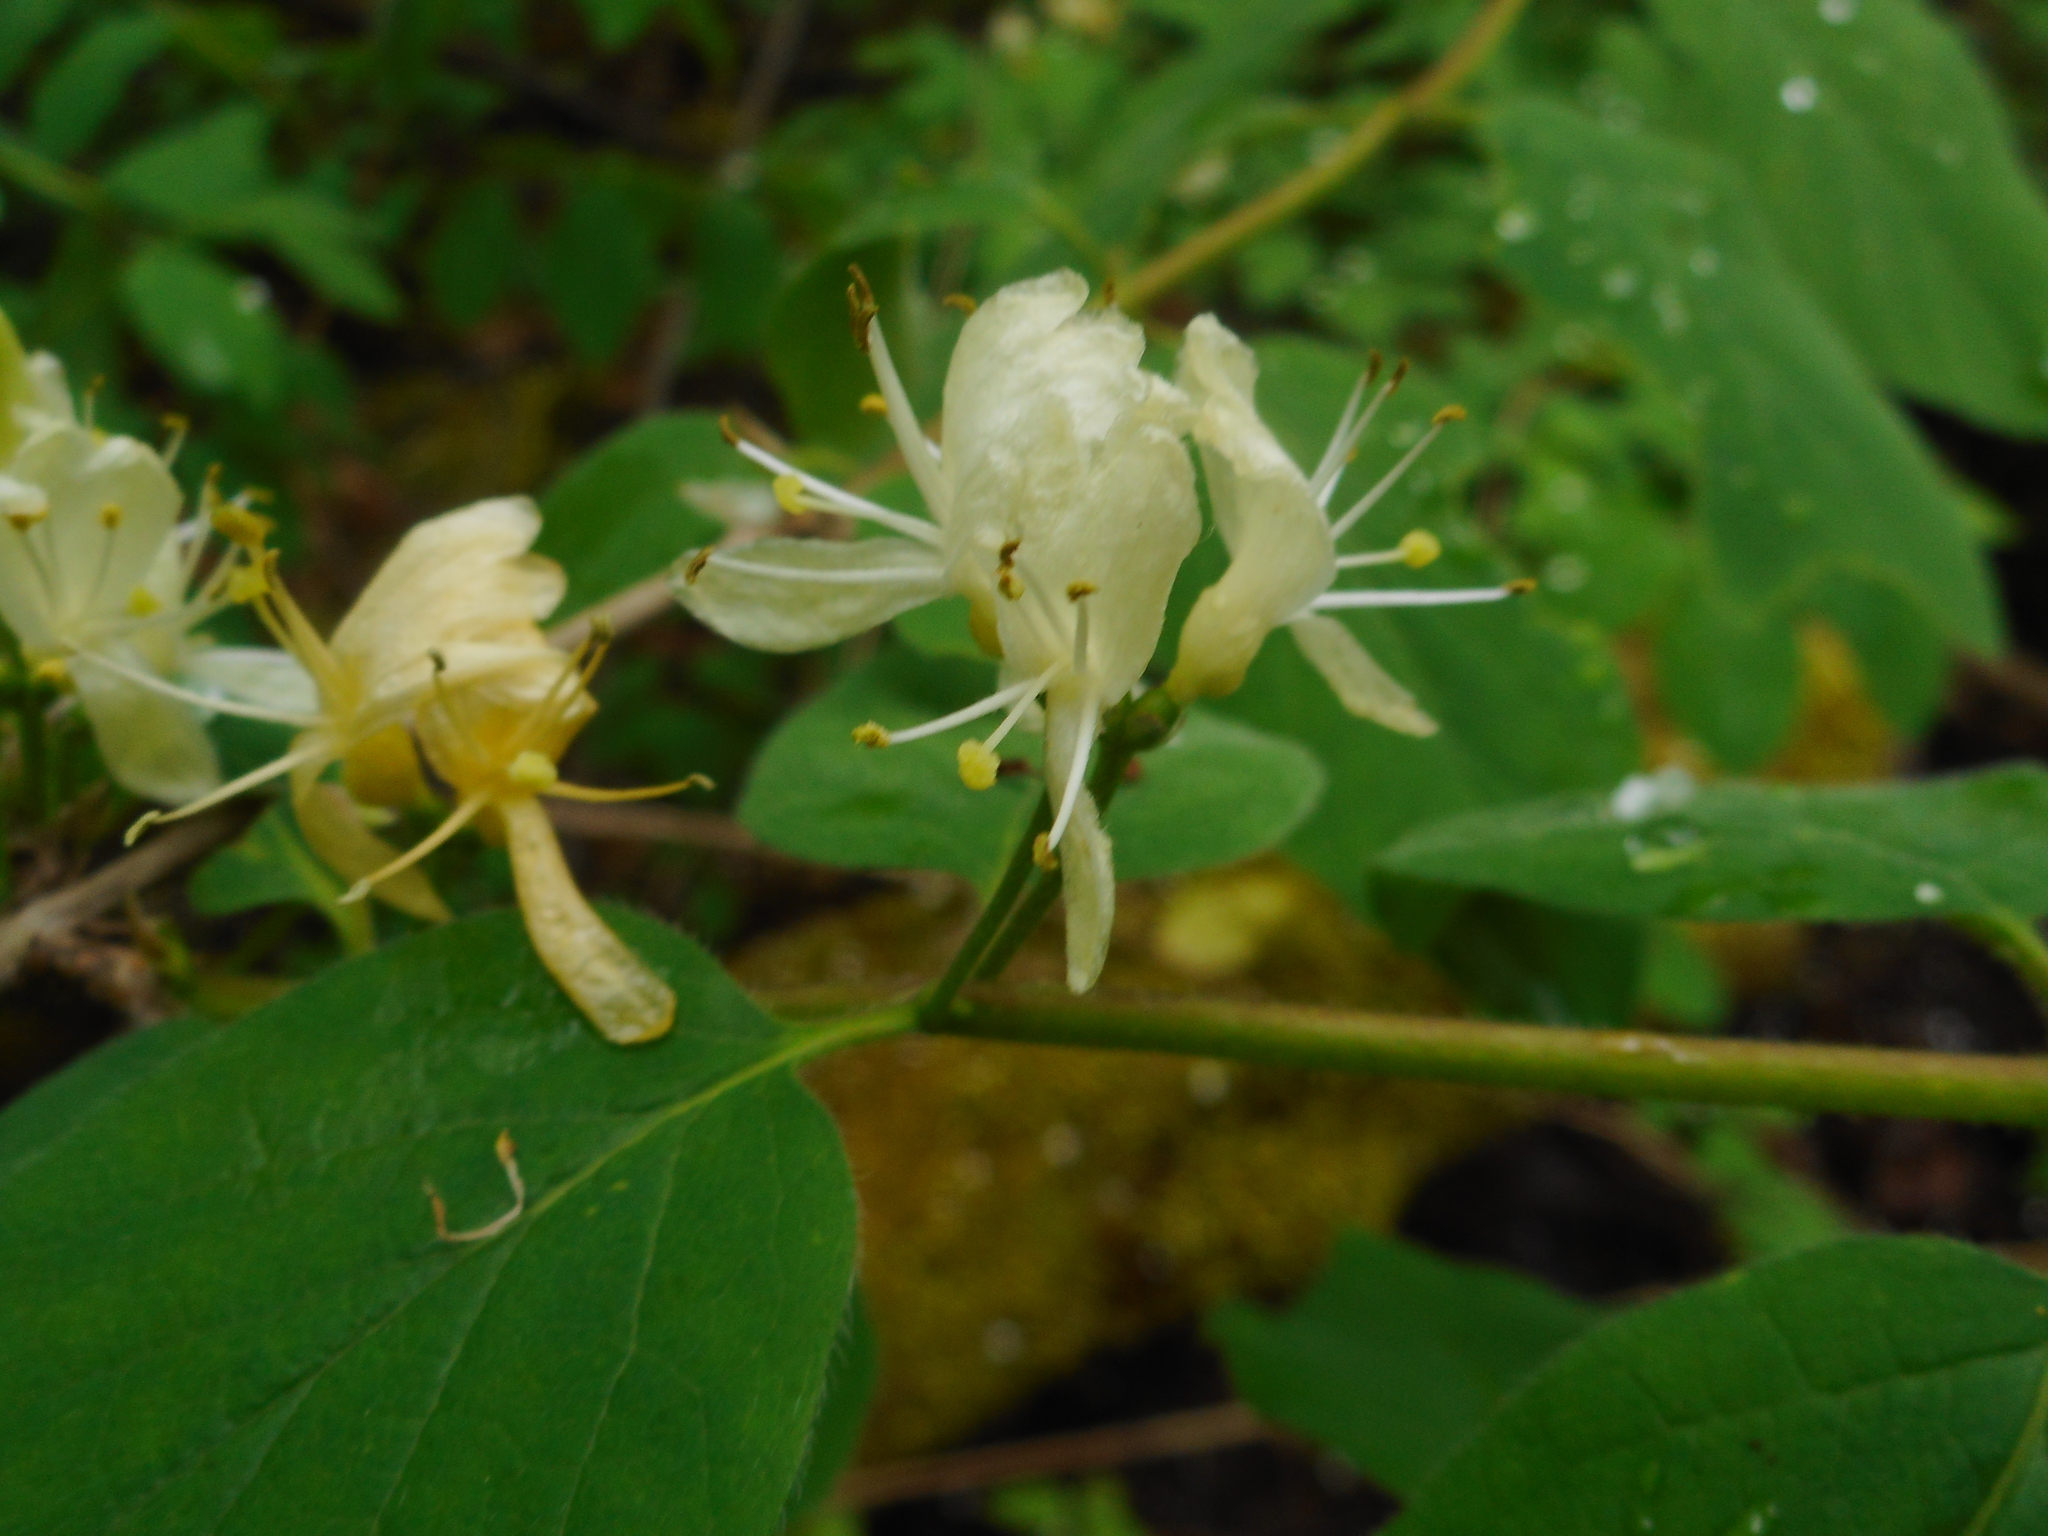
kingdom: Plantae
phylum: Tracheophyta
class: Magnoliopsida
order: Dipsacales
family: Caprifoliaceae
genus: Lonicera
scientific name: Lonicera xylosteum
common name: Fly honeysuckle
